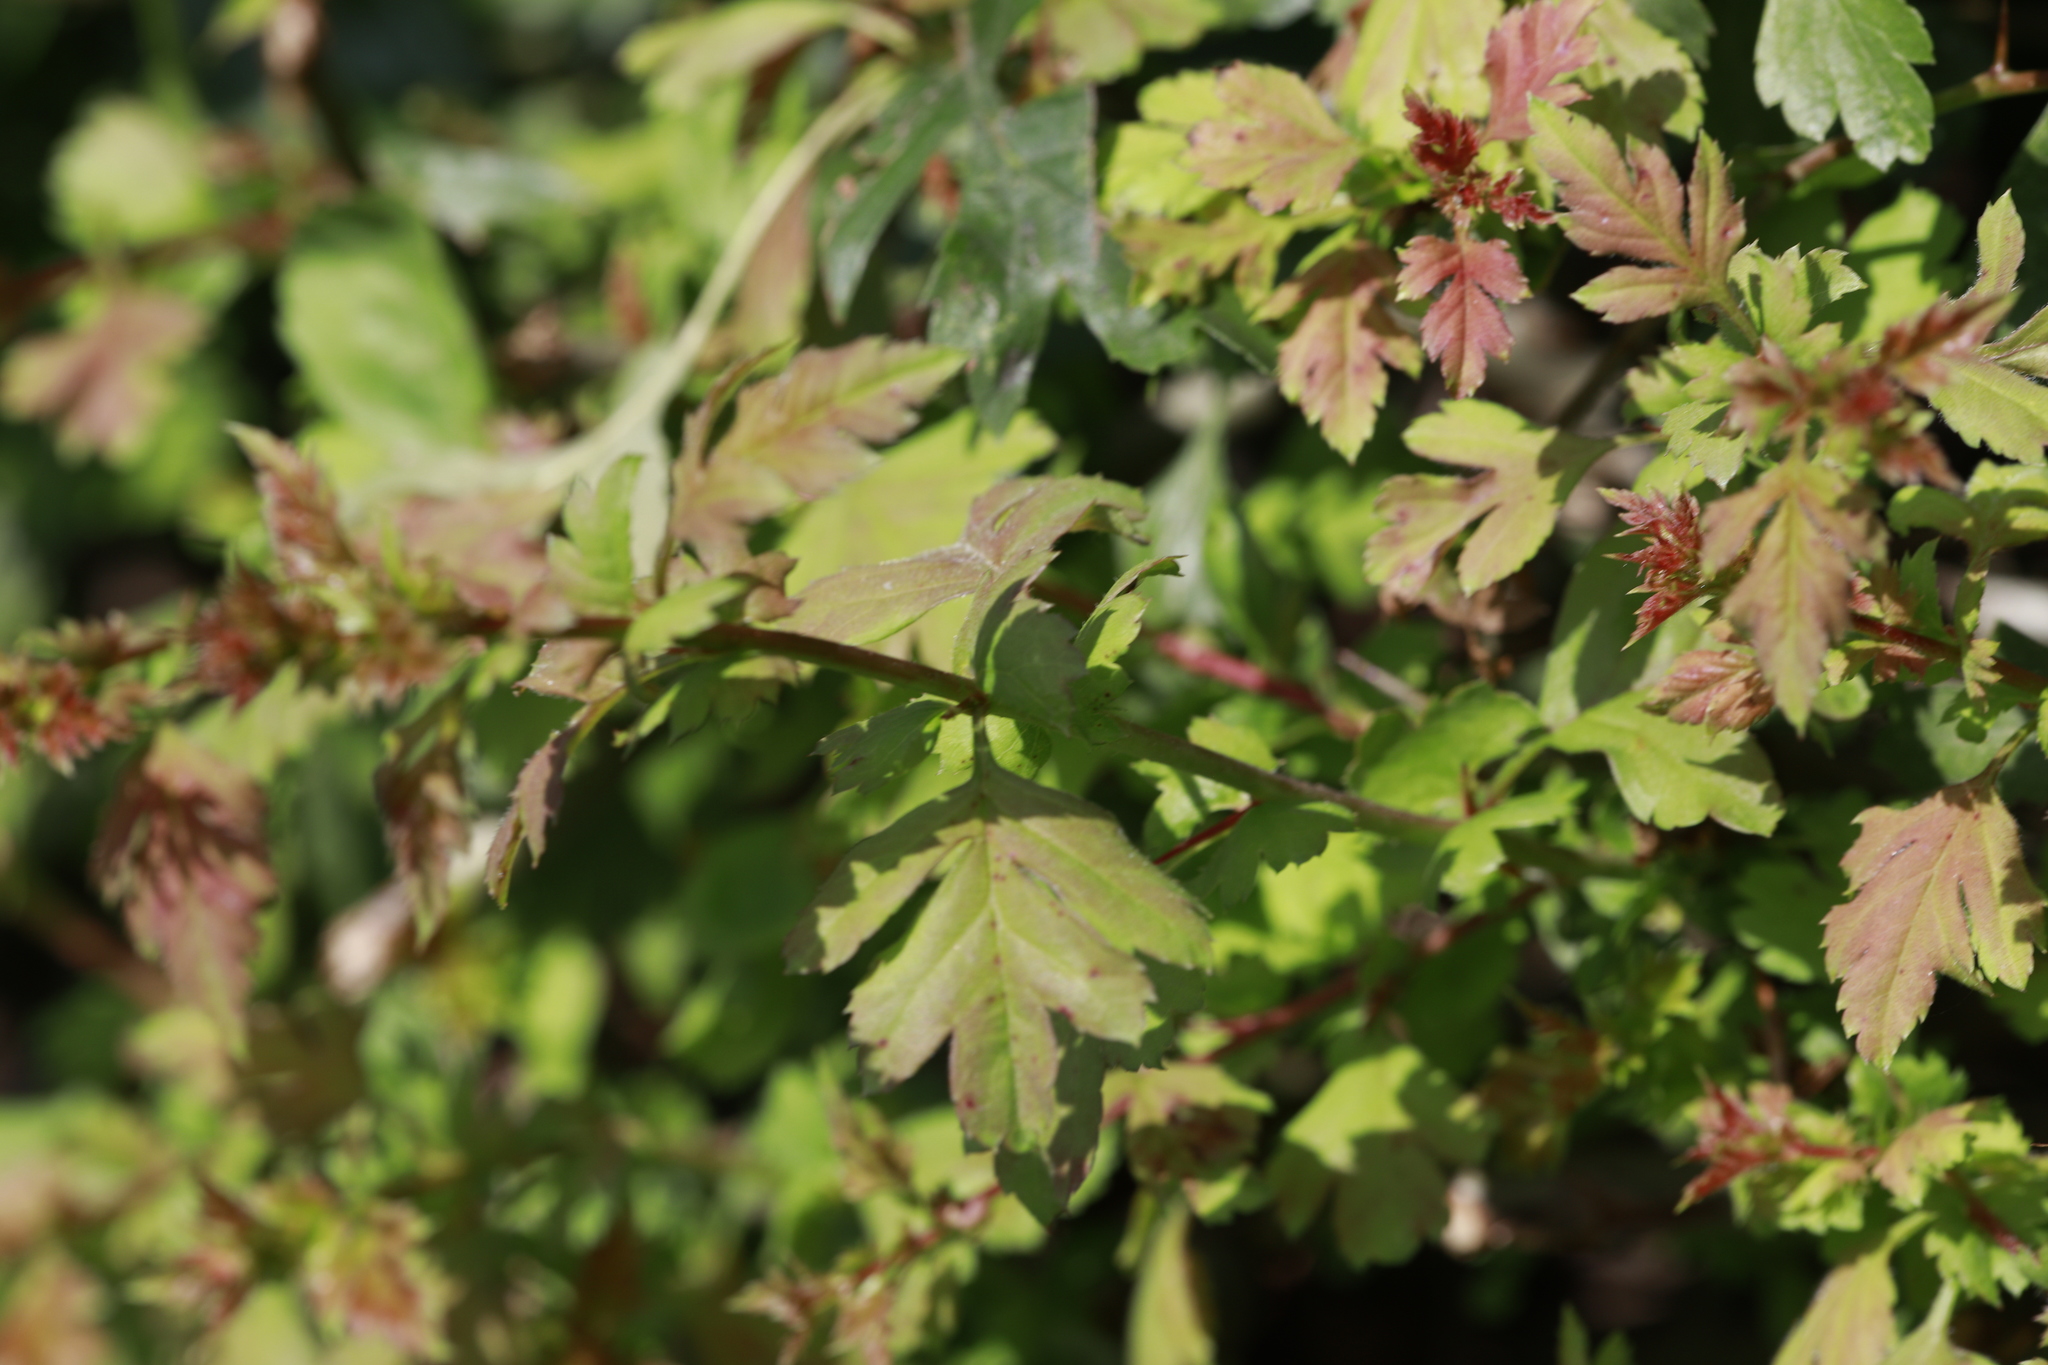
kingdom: Plantae
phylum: Tracheophyta
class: Magnoliopsida
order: Rosales
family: Rosaceae
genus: Crataegus
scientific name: Crataegus monogyna
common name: Hawthorn
